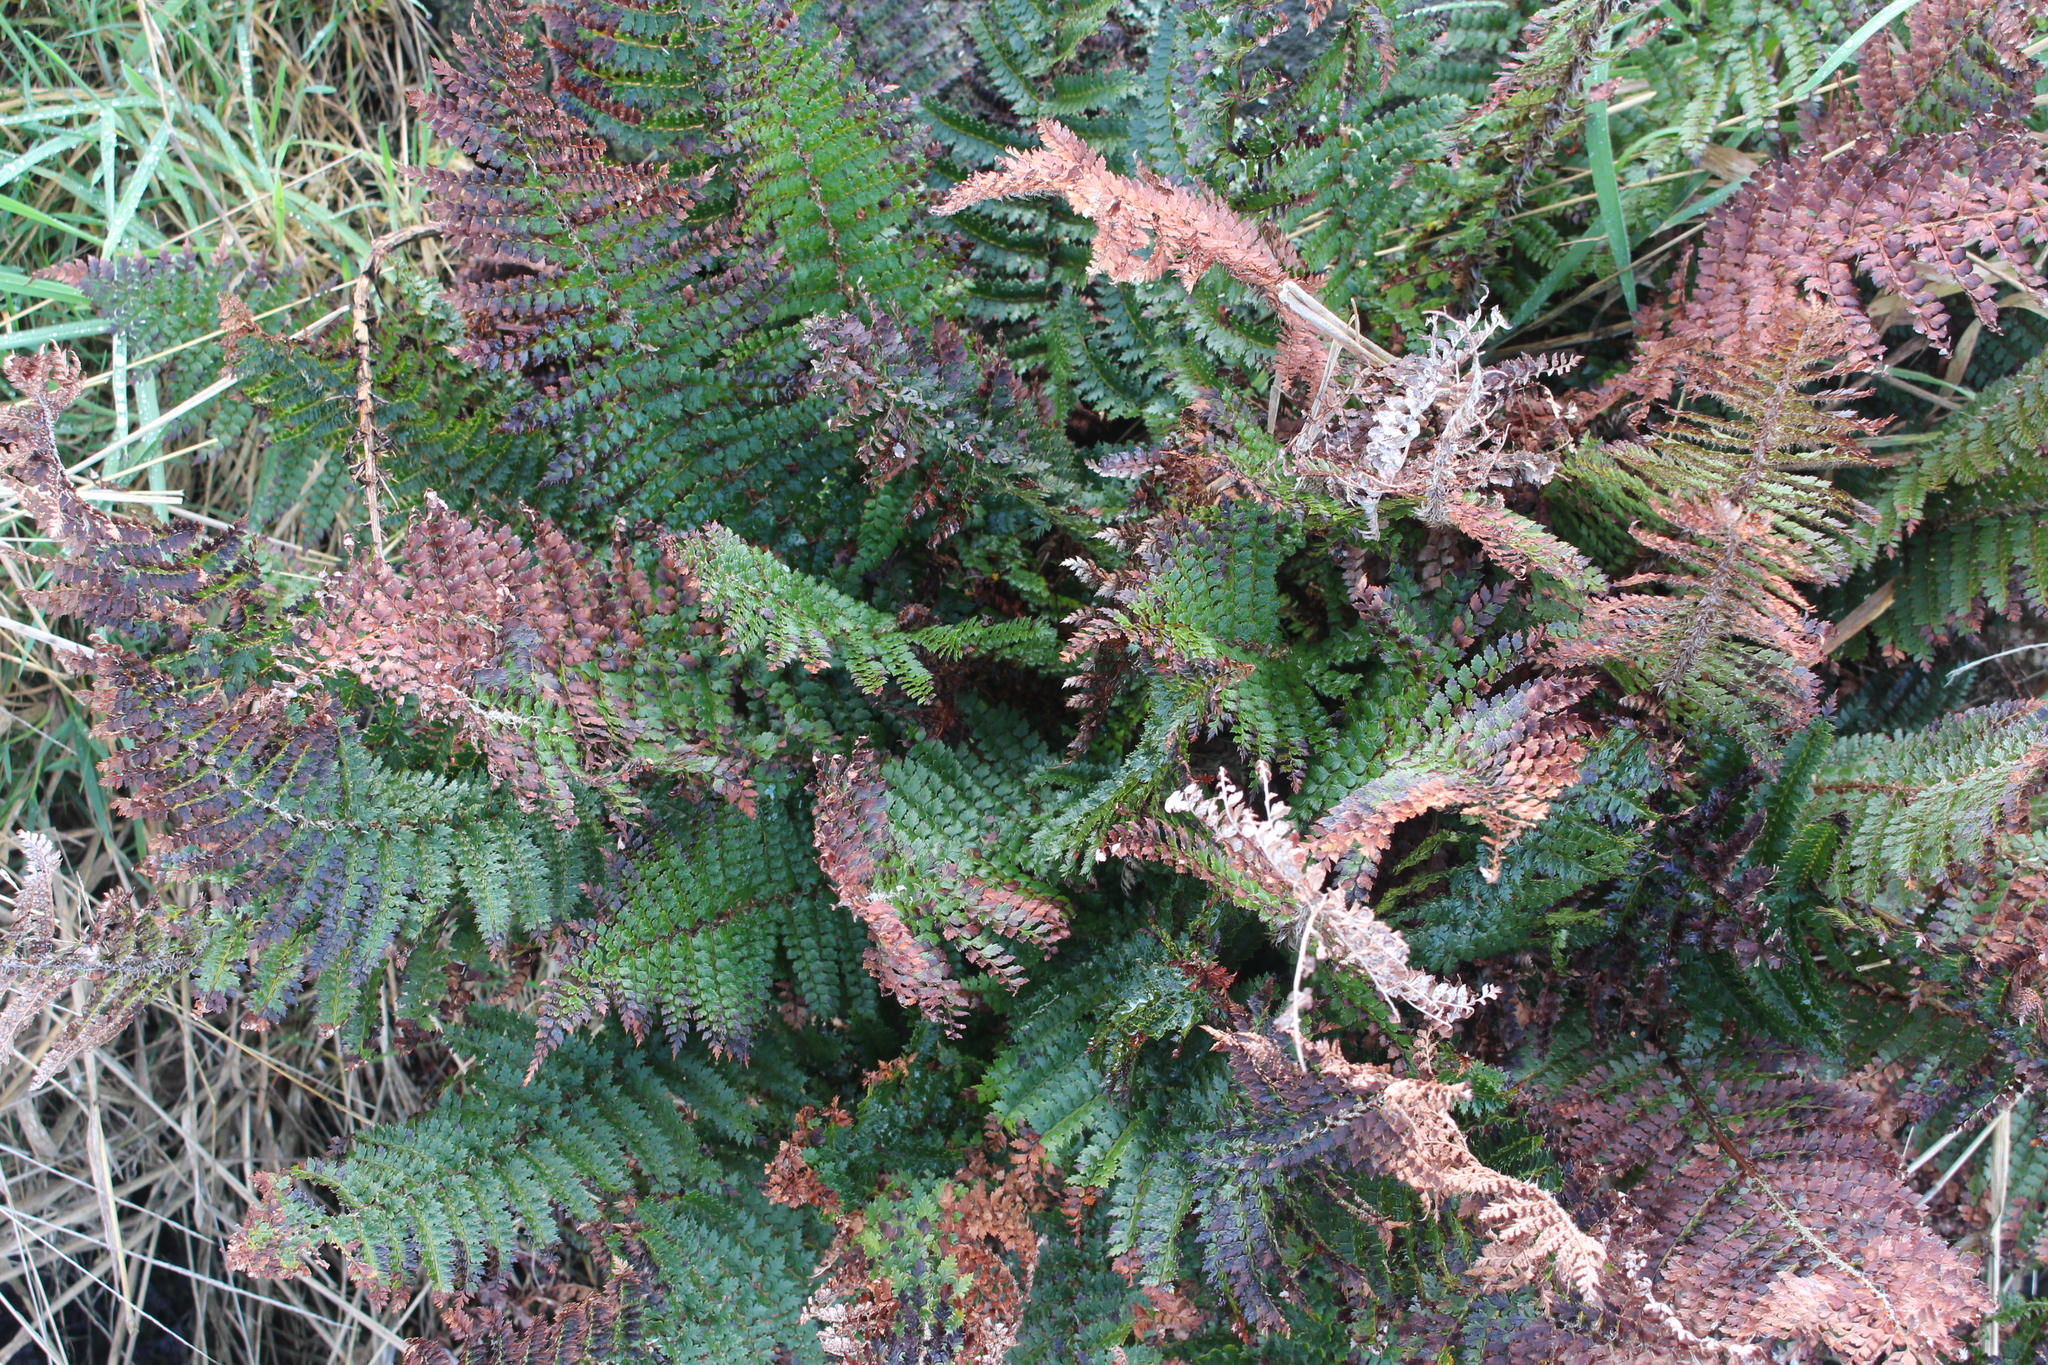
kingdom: Plantae
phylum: Tracheophyta
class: Polypodiopsida
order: Polypodiales
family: Dryopteridaceae
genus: Polystichum
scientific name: Polystichum vestitum
